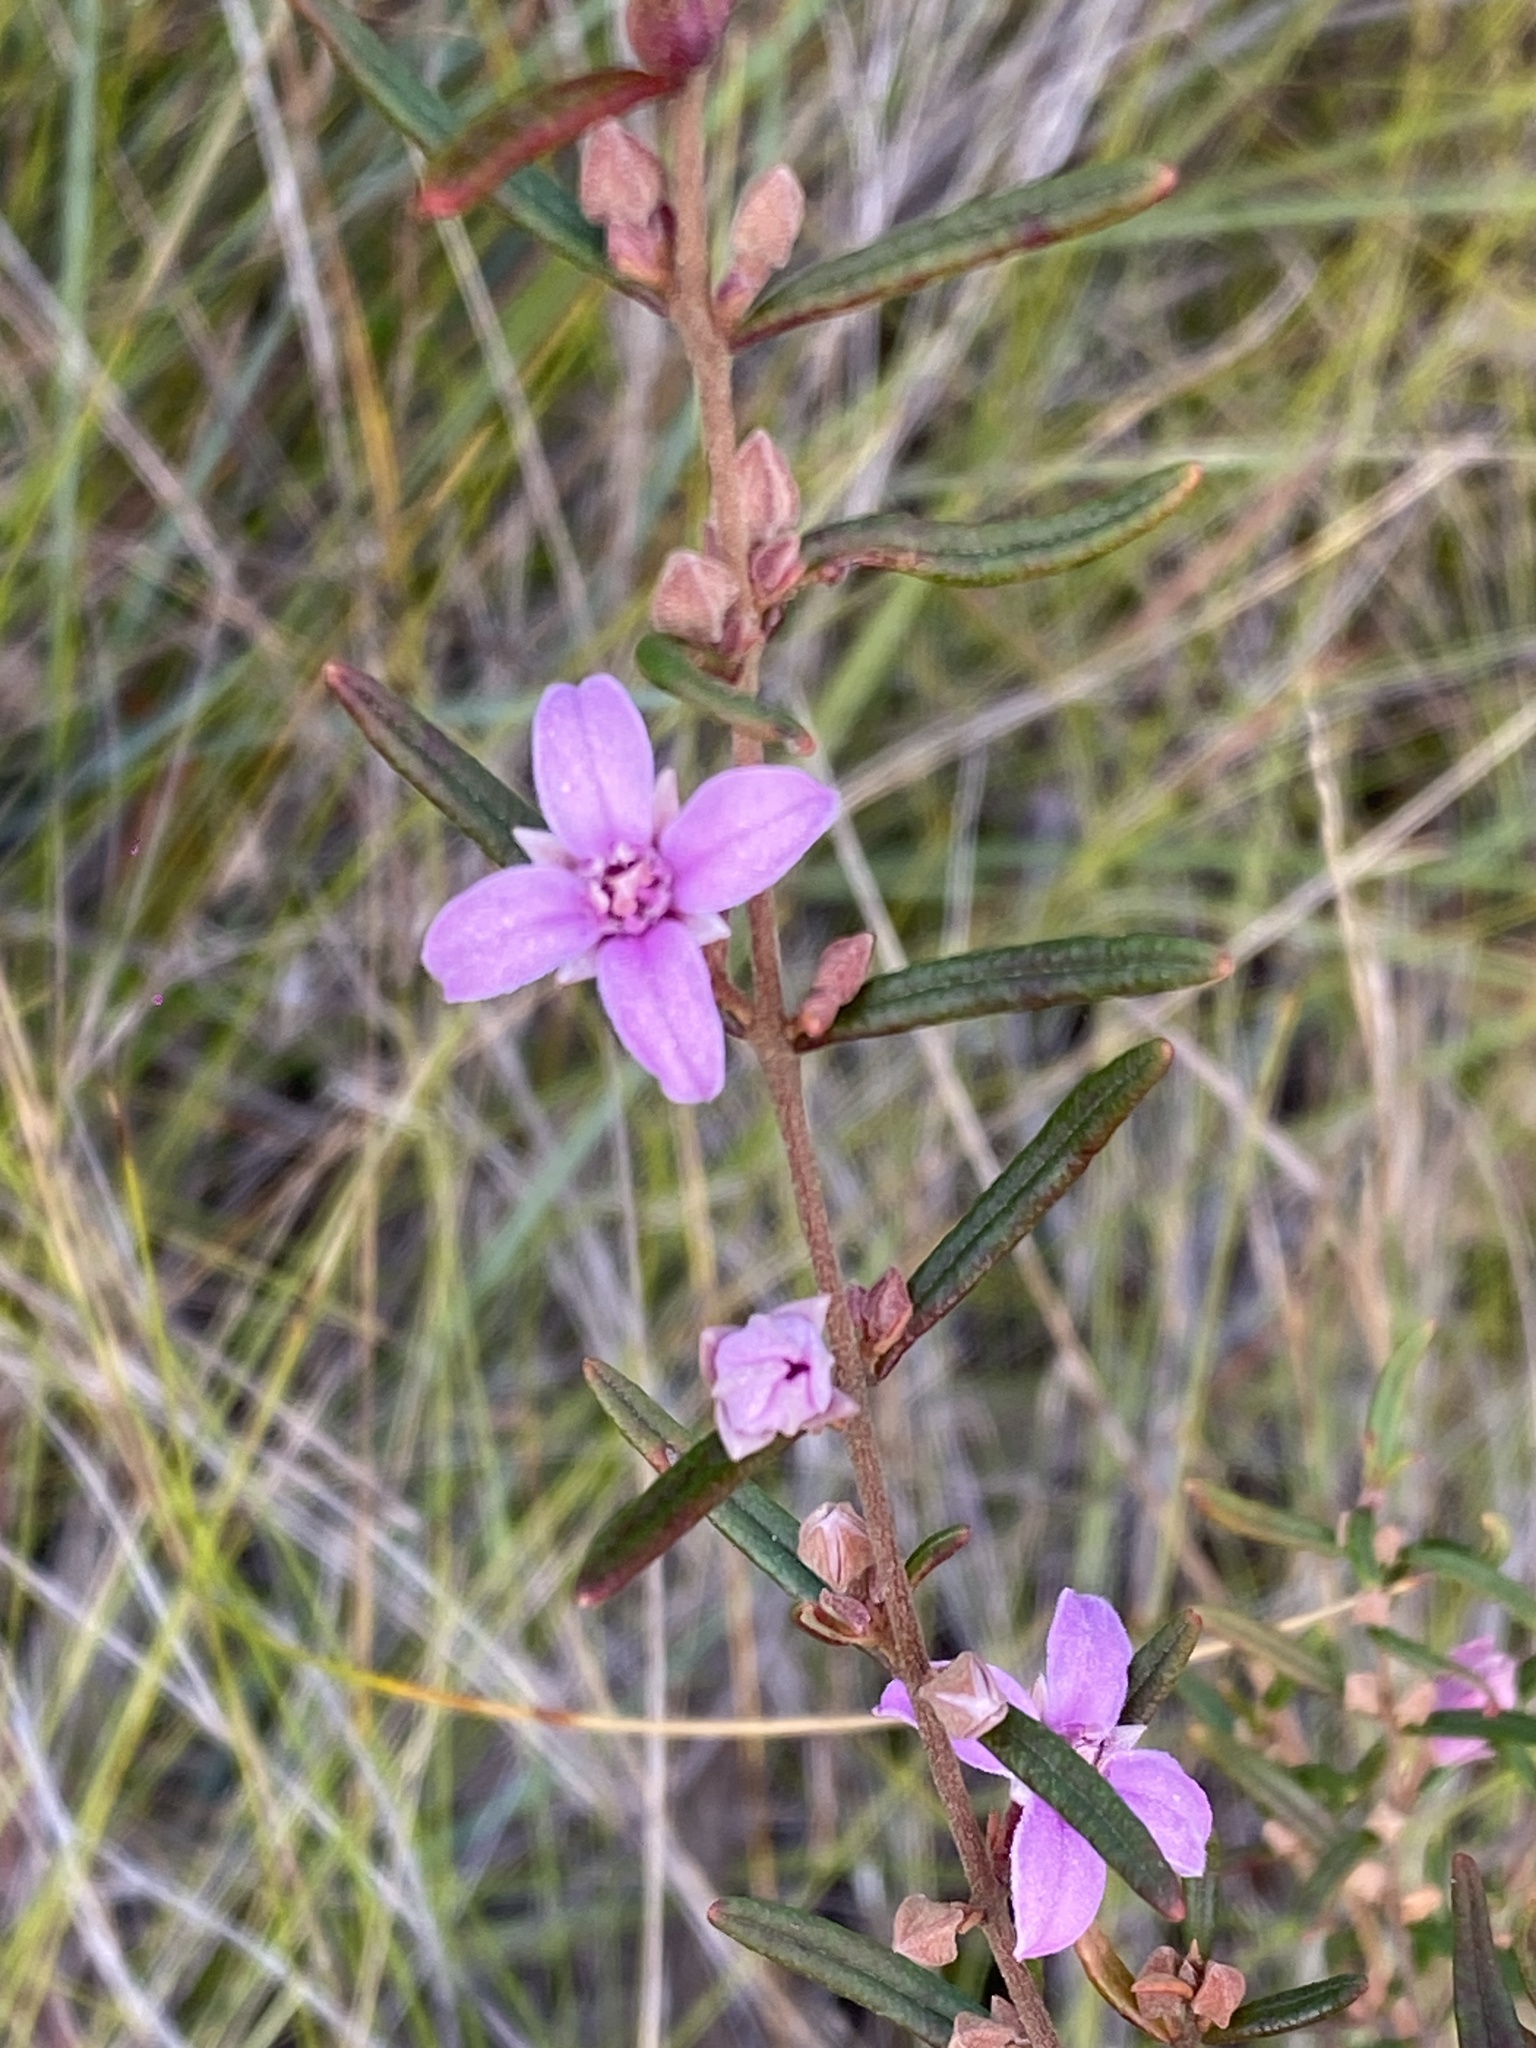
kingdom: Plantae
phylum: Tracheophyta
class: Magnoliopsida
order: Sapindales
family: Rutaceae
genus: Boronia
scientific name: Boronia rosmarinifolia
